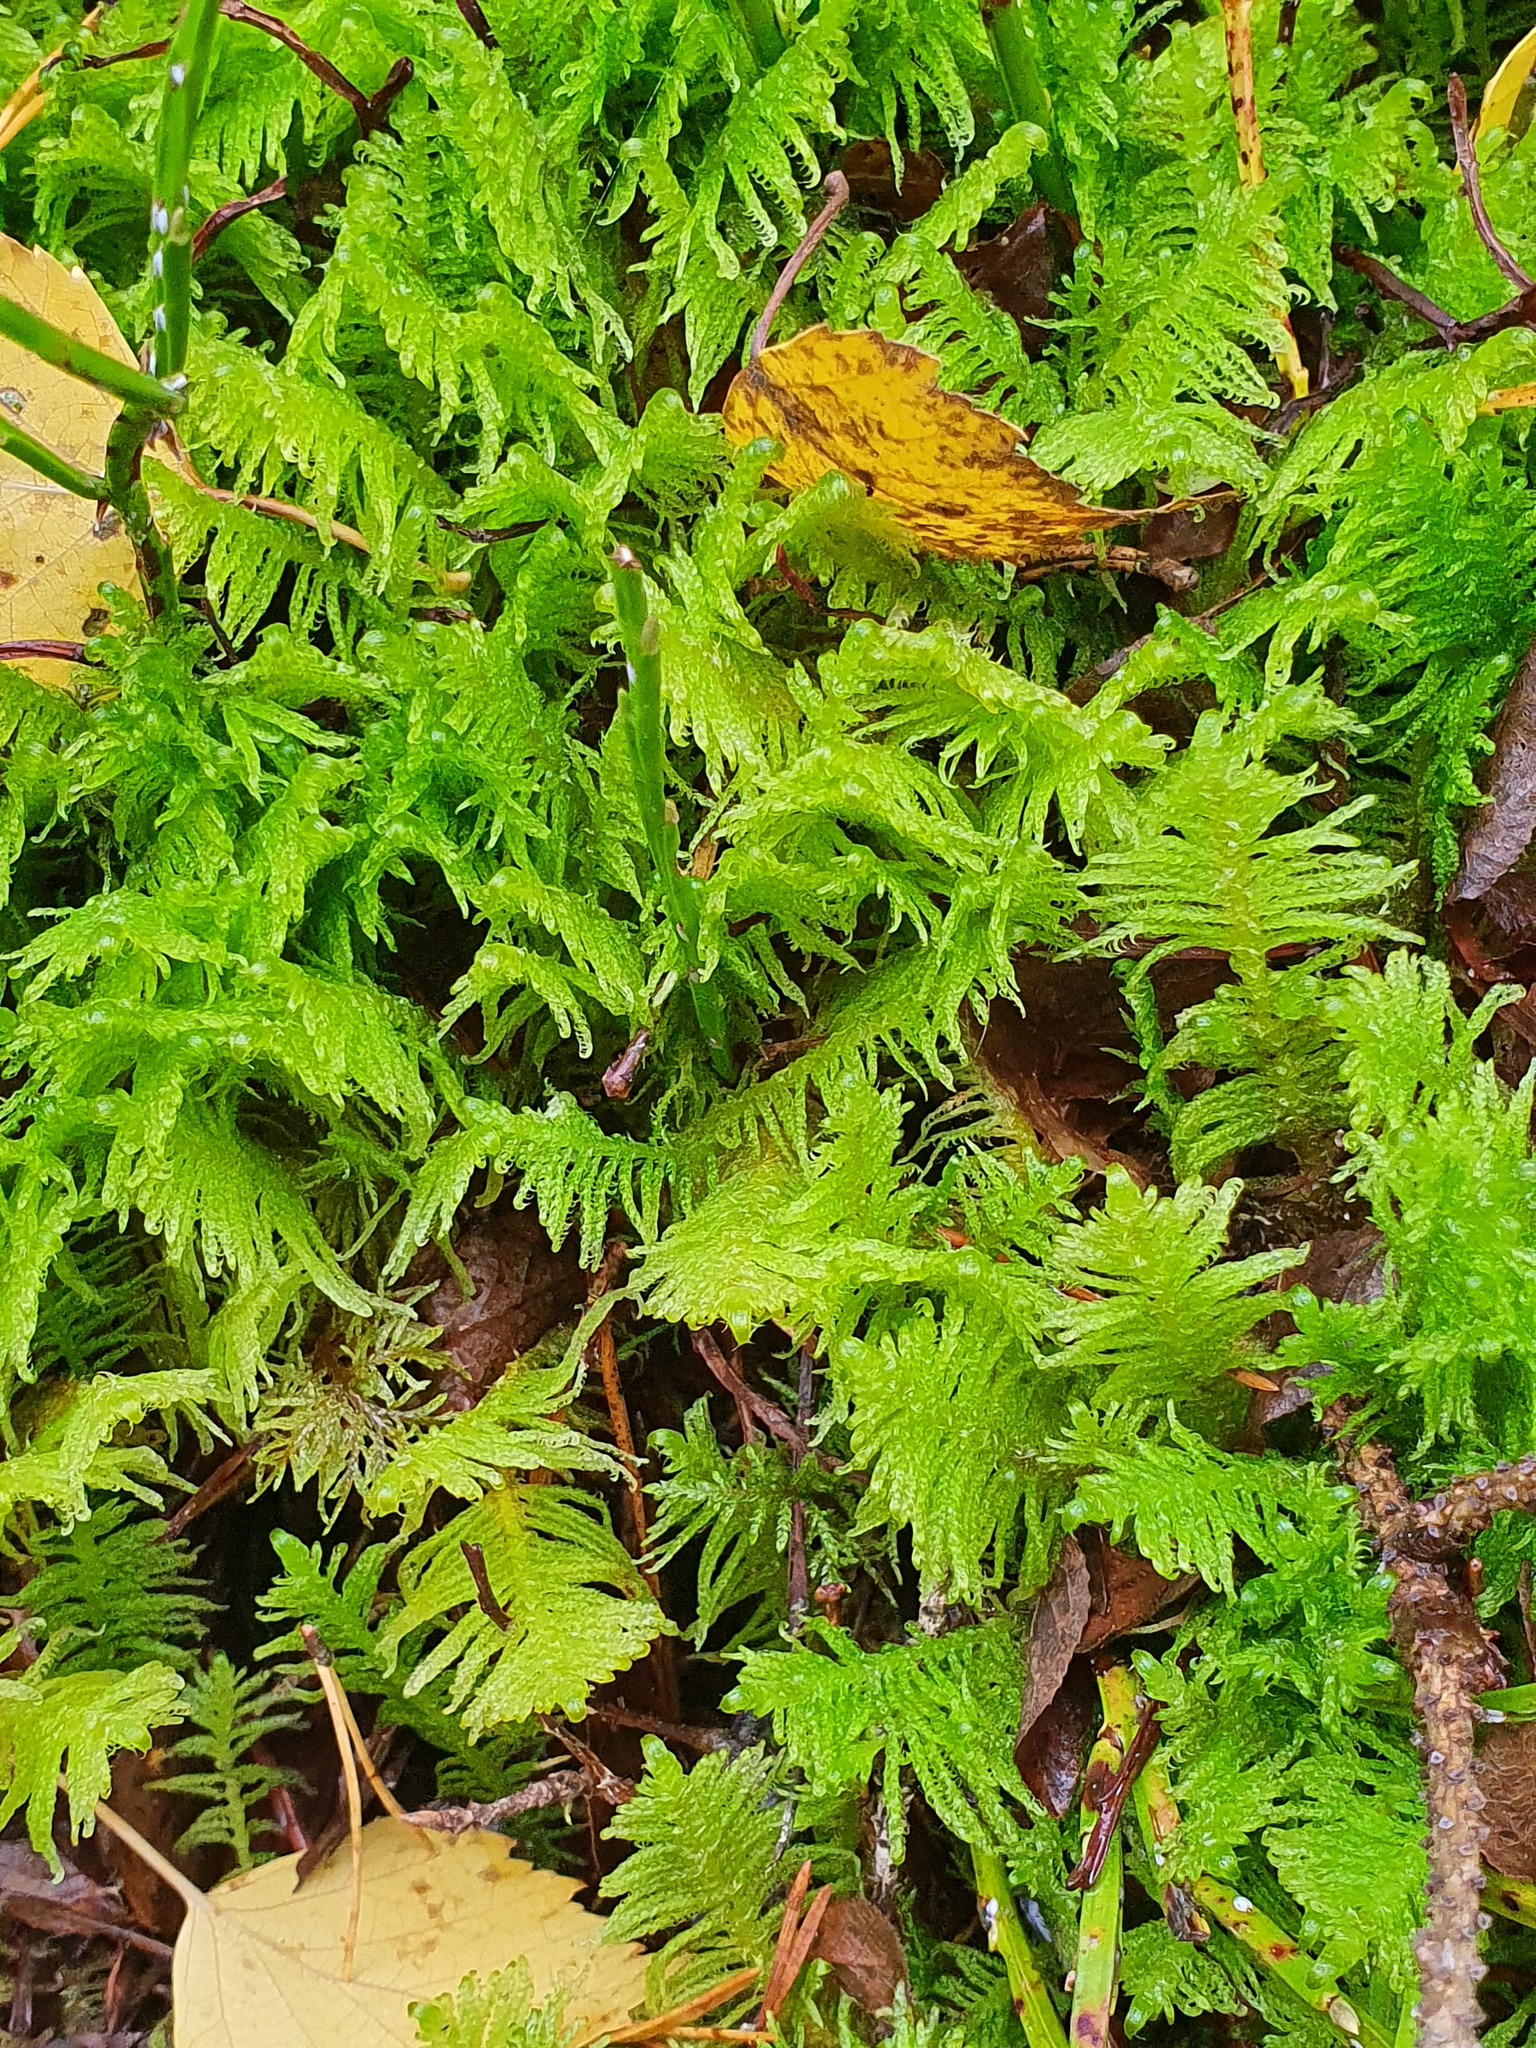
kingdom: Plantae
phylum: Bryophyta
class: Bryopsida
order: Hypnales
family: Pylaisiaceae
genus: Ptilium
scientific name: Ptilium crista-castrensis
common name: Knight's plume moss
